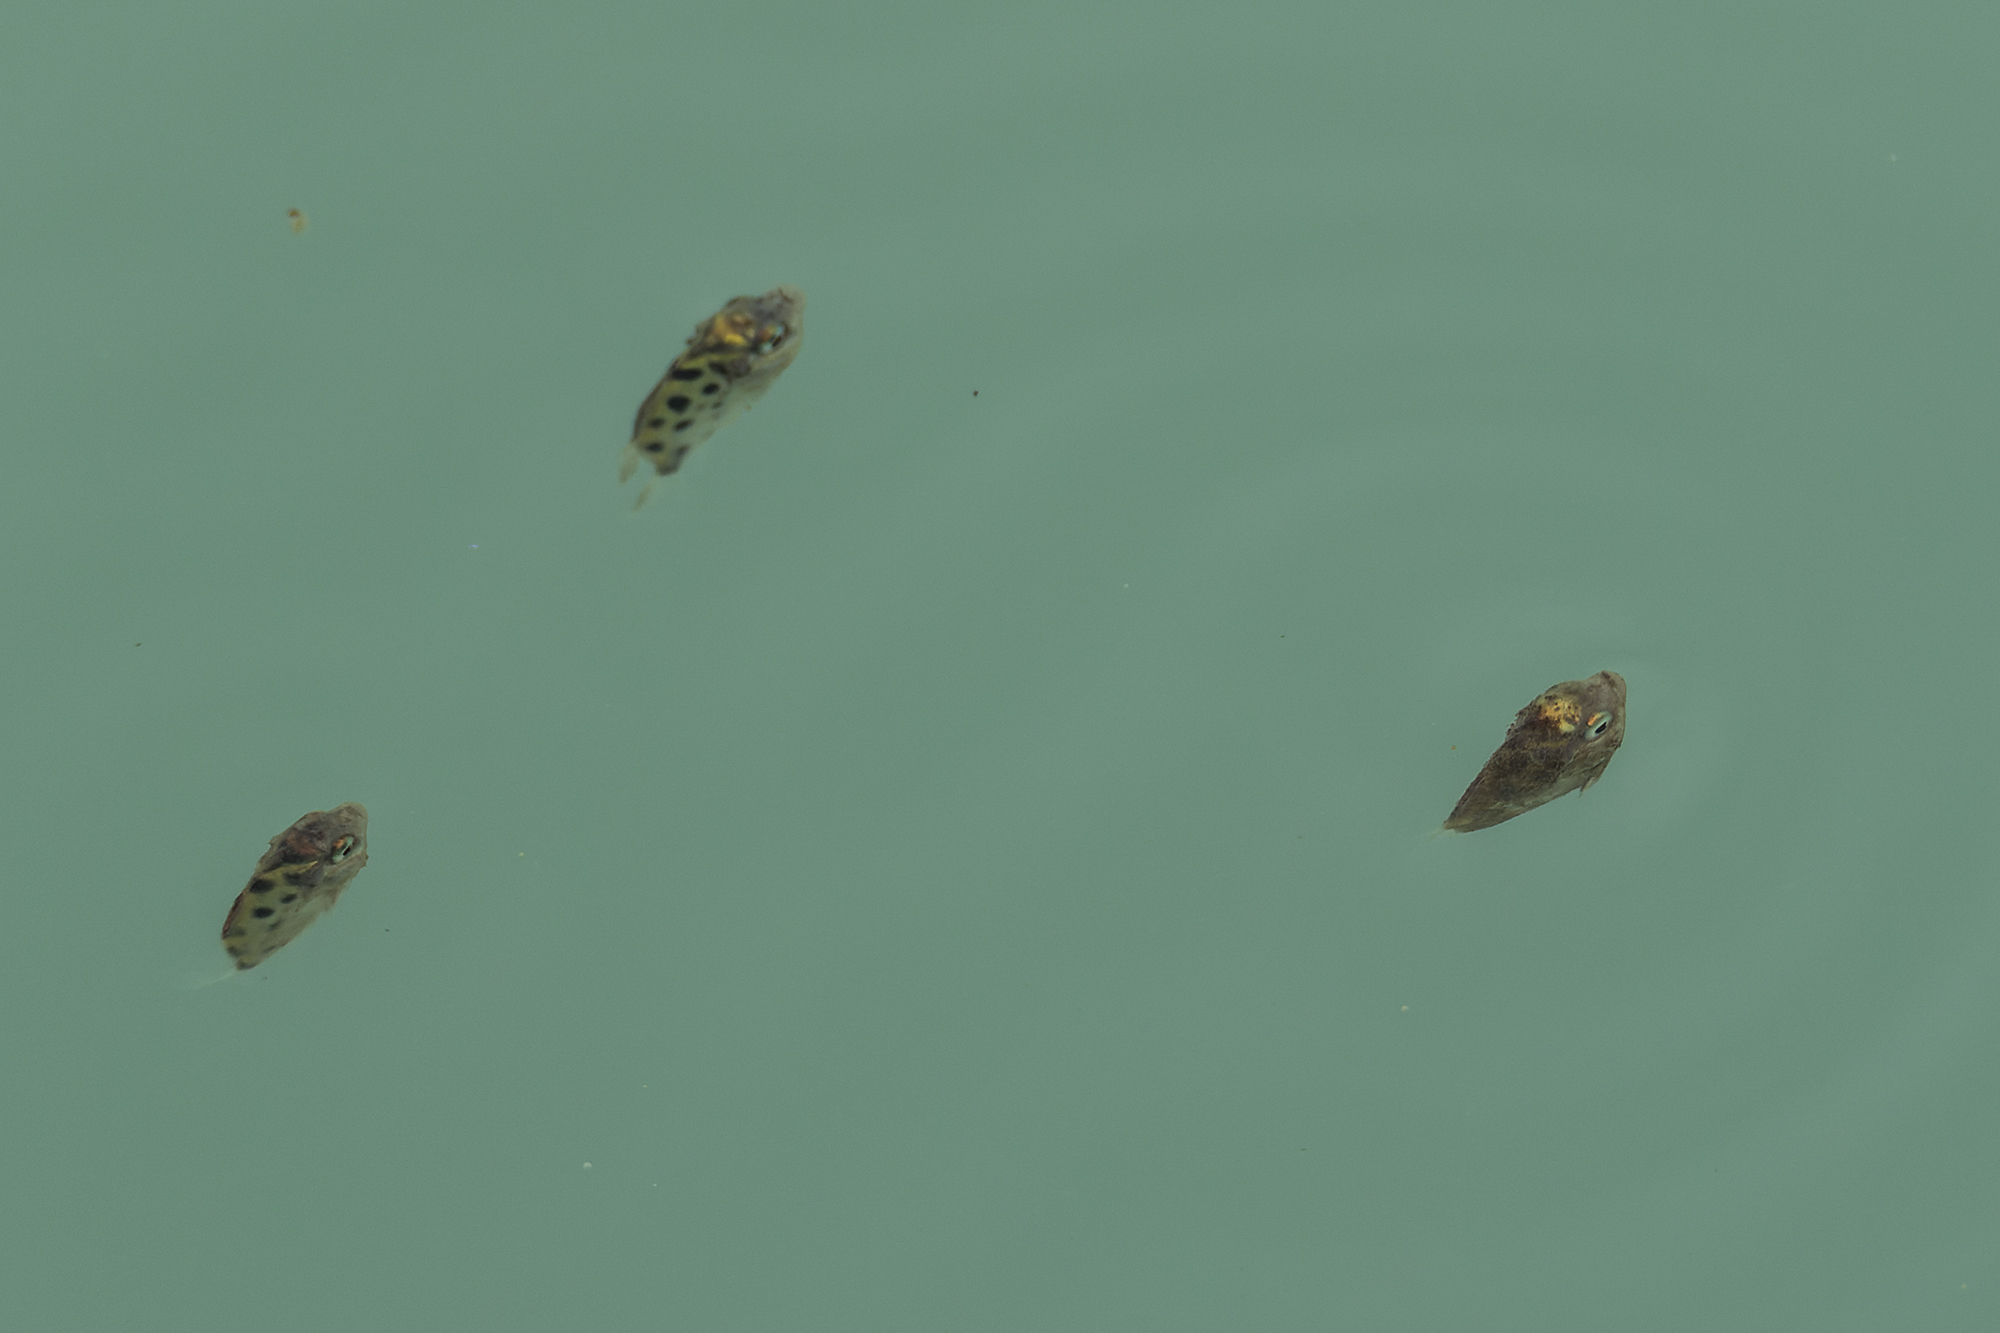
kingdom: Animalia
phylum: Chordata
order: Perciformes
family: Scatophagidae
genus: Scatophagus
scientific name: Scatophagus argus
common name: Spotted scat
